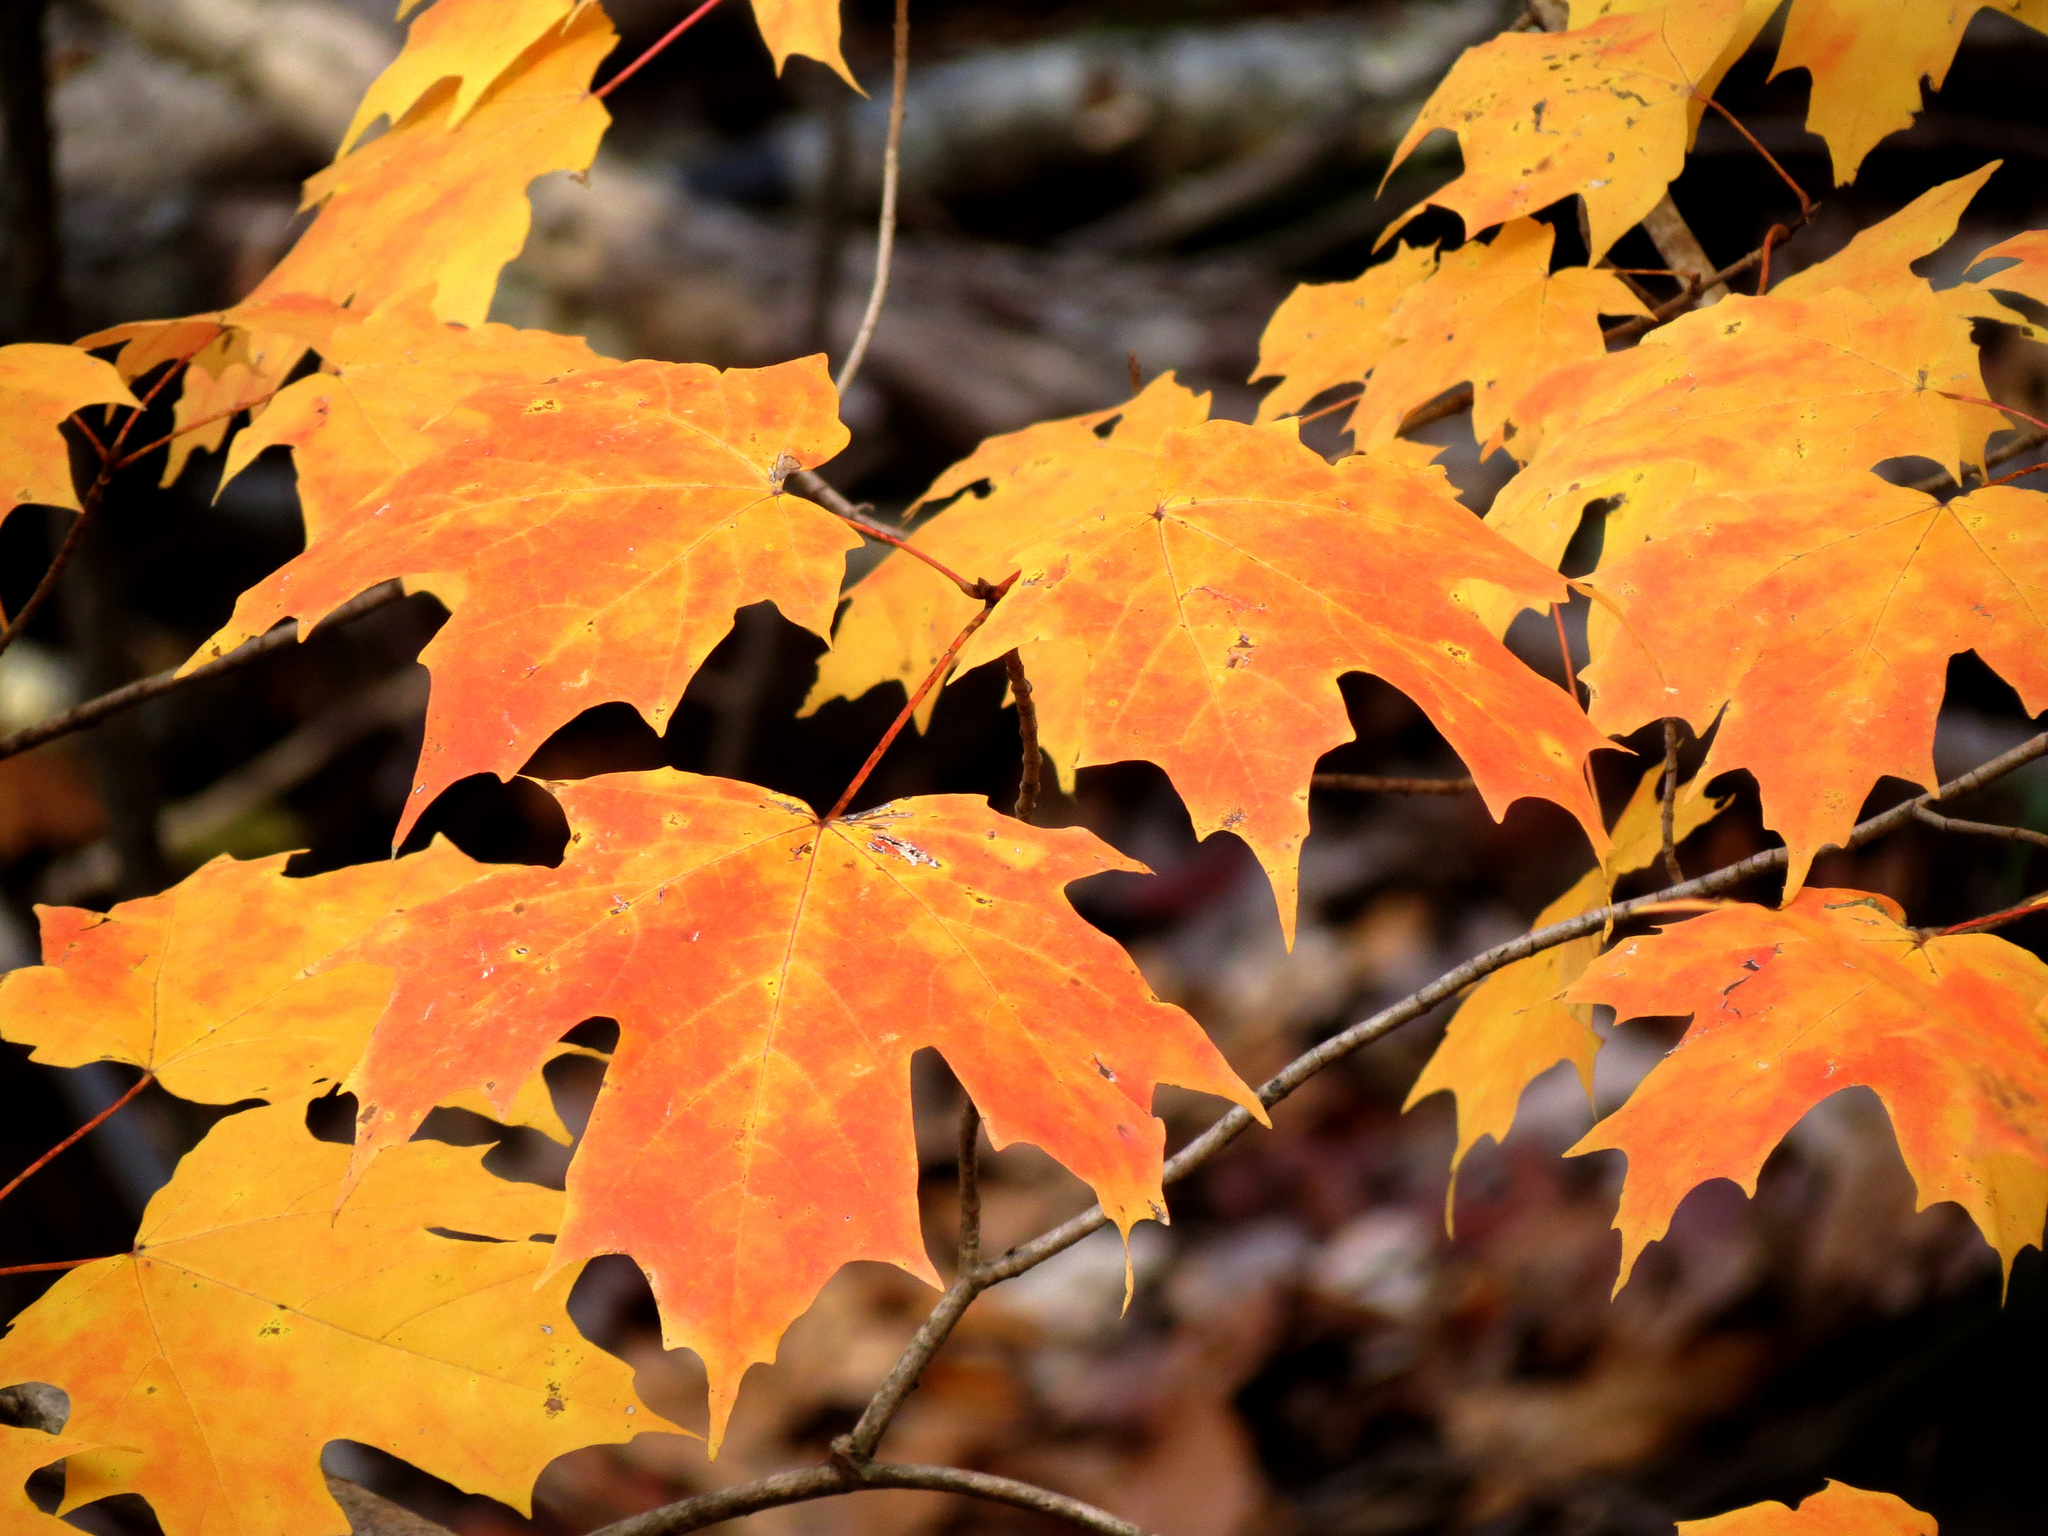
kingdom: Plantae
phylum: Tracheophyta
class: Magnoliopsida
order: Sapindales
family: Sapindaceae
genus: Acer
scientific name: Acer saccharum
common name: Sugar maple
